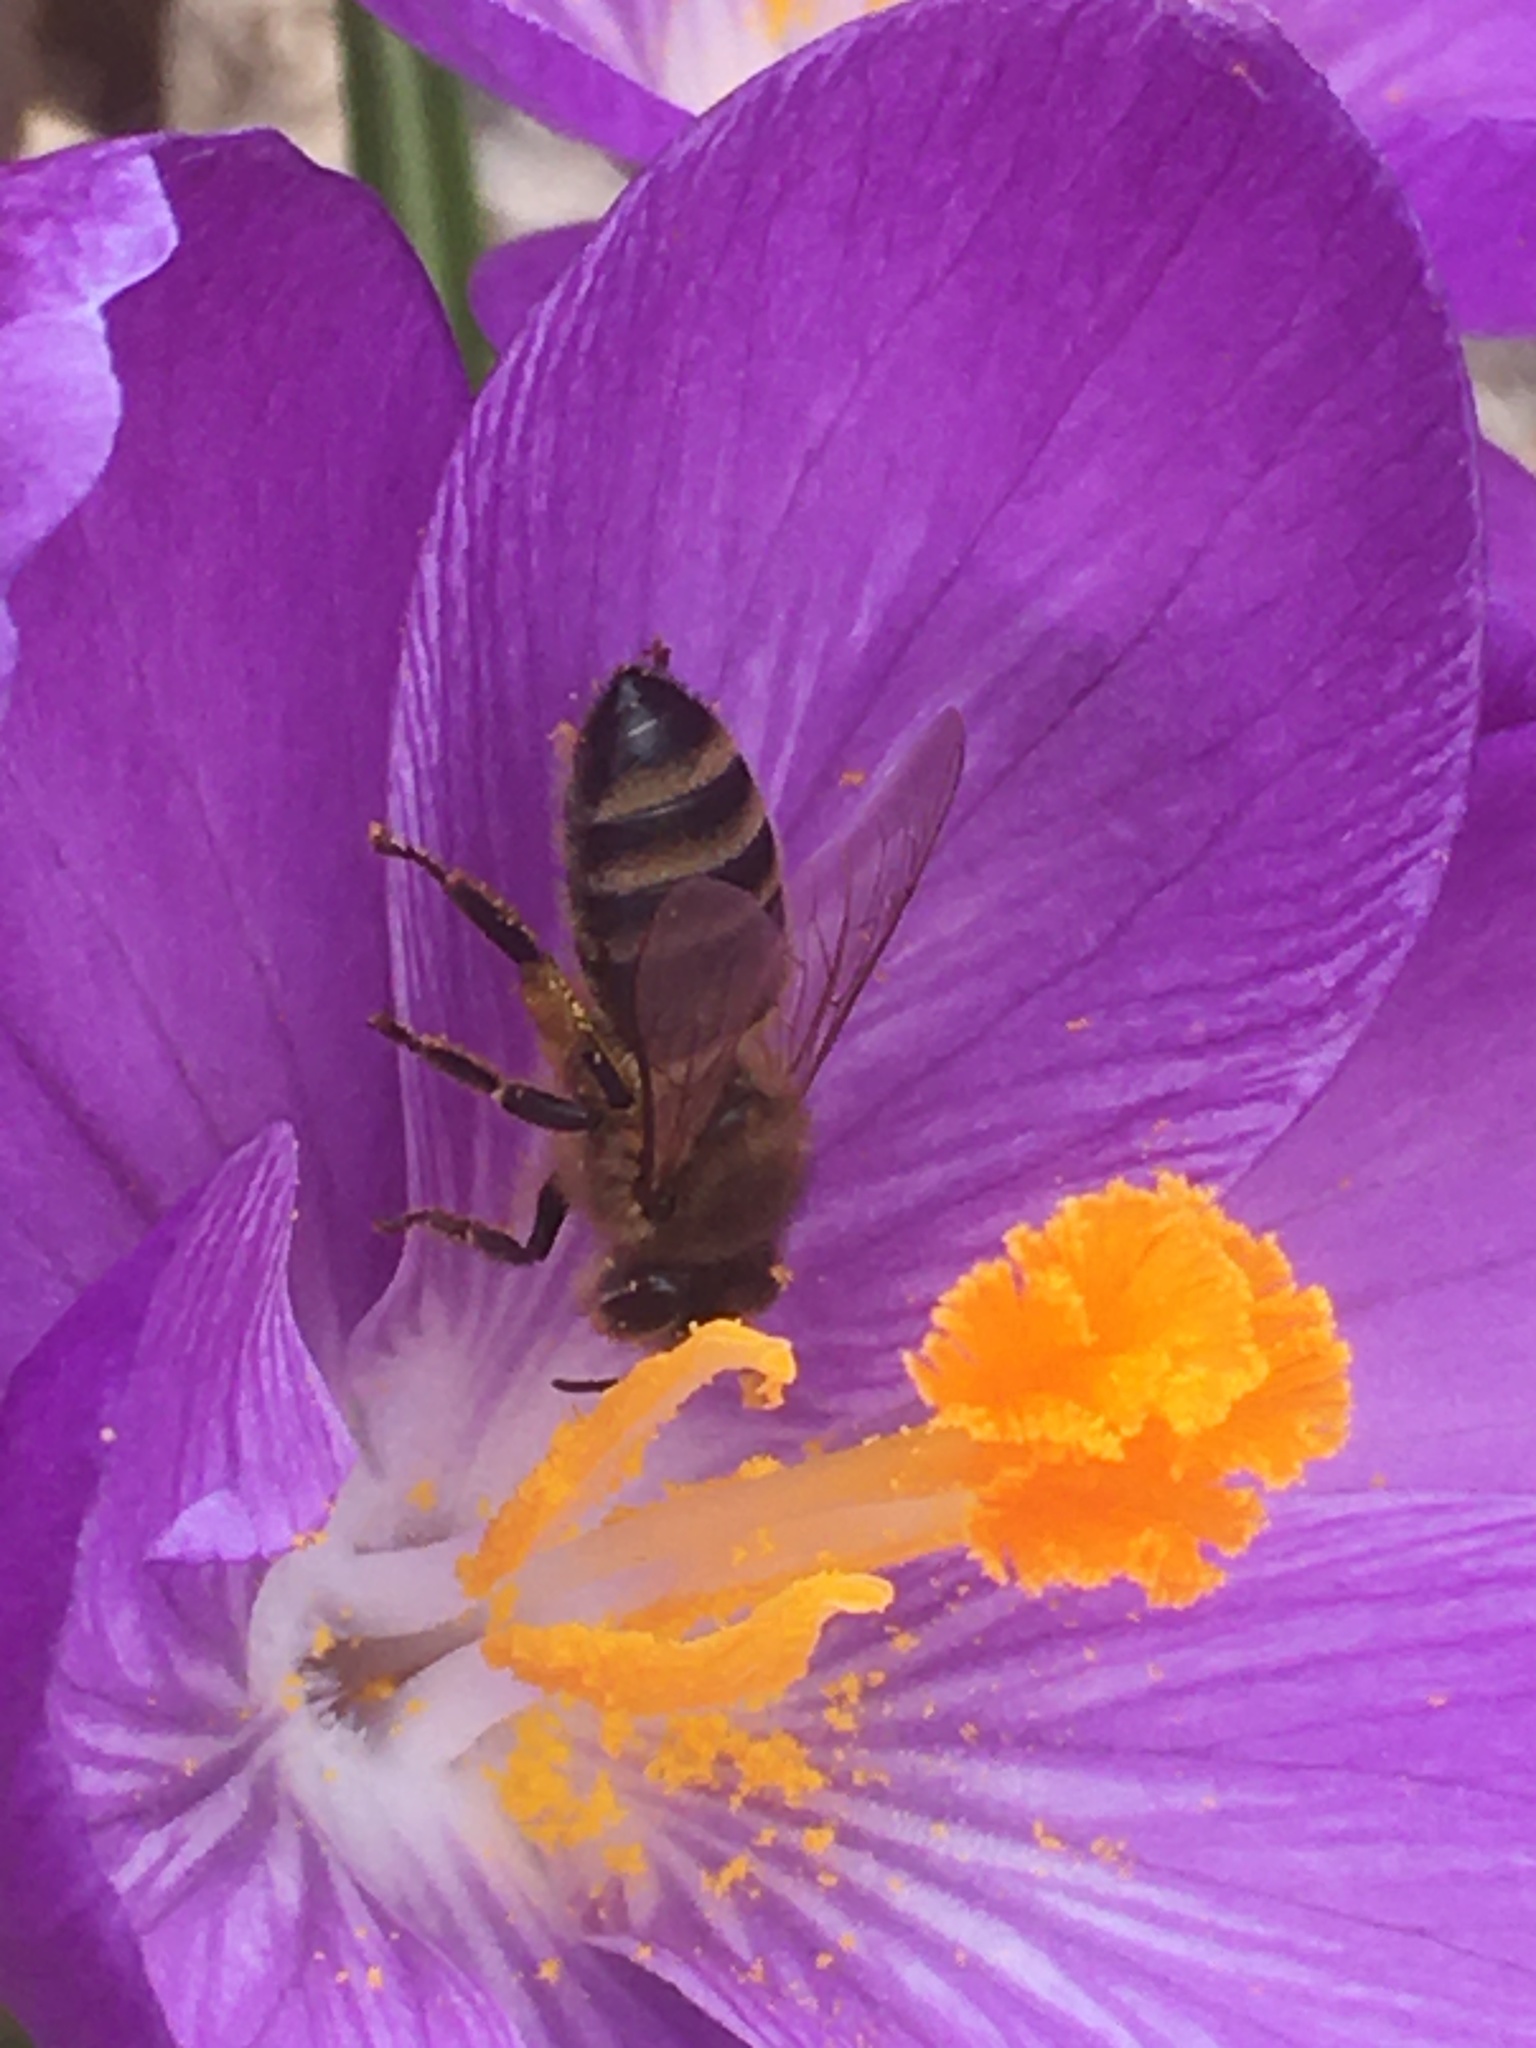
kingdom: Animalia
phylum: Arthropoda
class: Insecta
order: Hymenoptera
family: Apidae
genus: Apis
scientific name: Apis mellifera
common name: Honey bee
